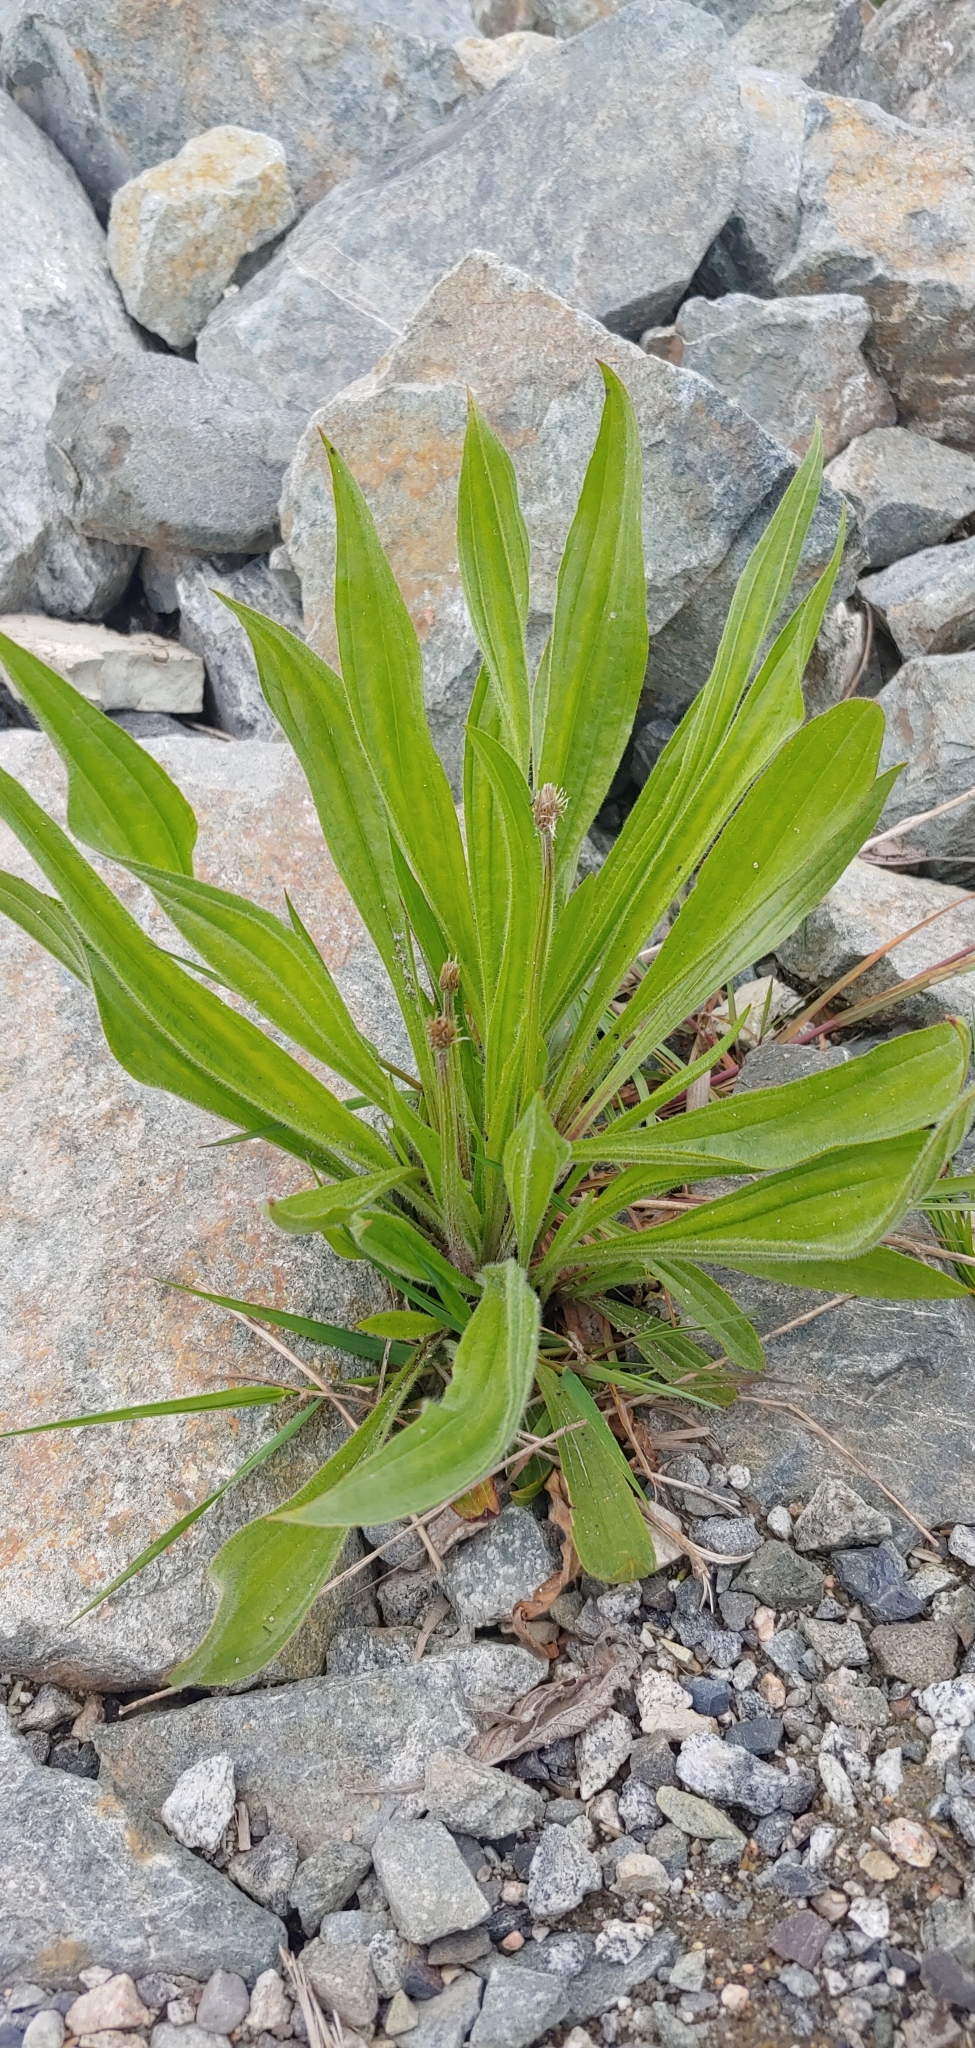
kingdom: Plantae
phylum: Tracheophyta
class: Magnoliopsida
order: Lamiales
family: Plantaginaceae
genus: Plantago
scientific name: Plantago lanceolata
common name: Ribwort plantain
